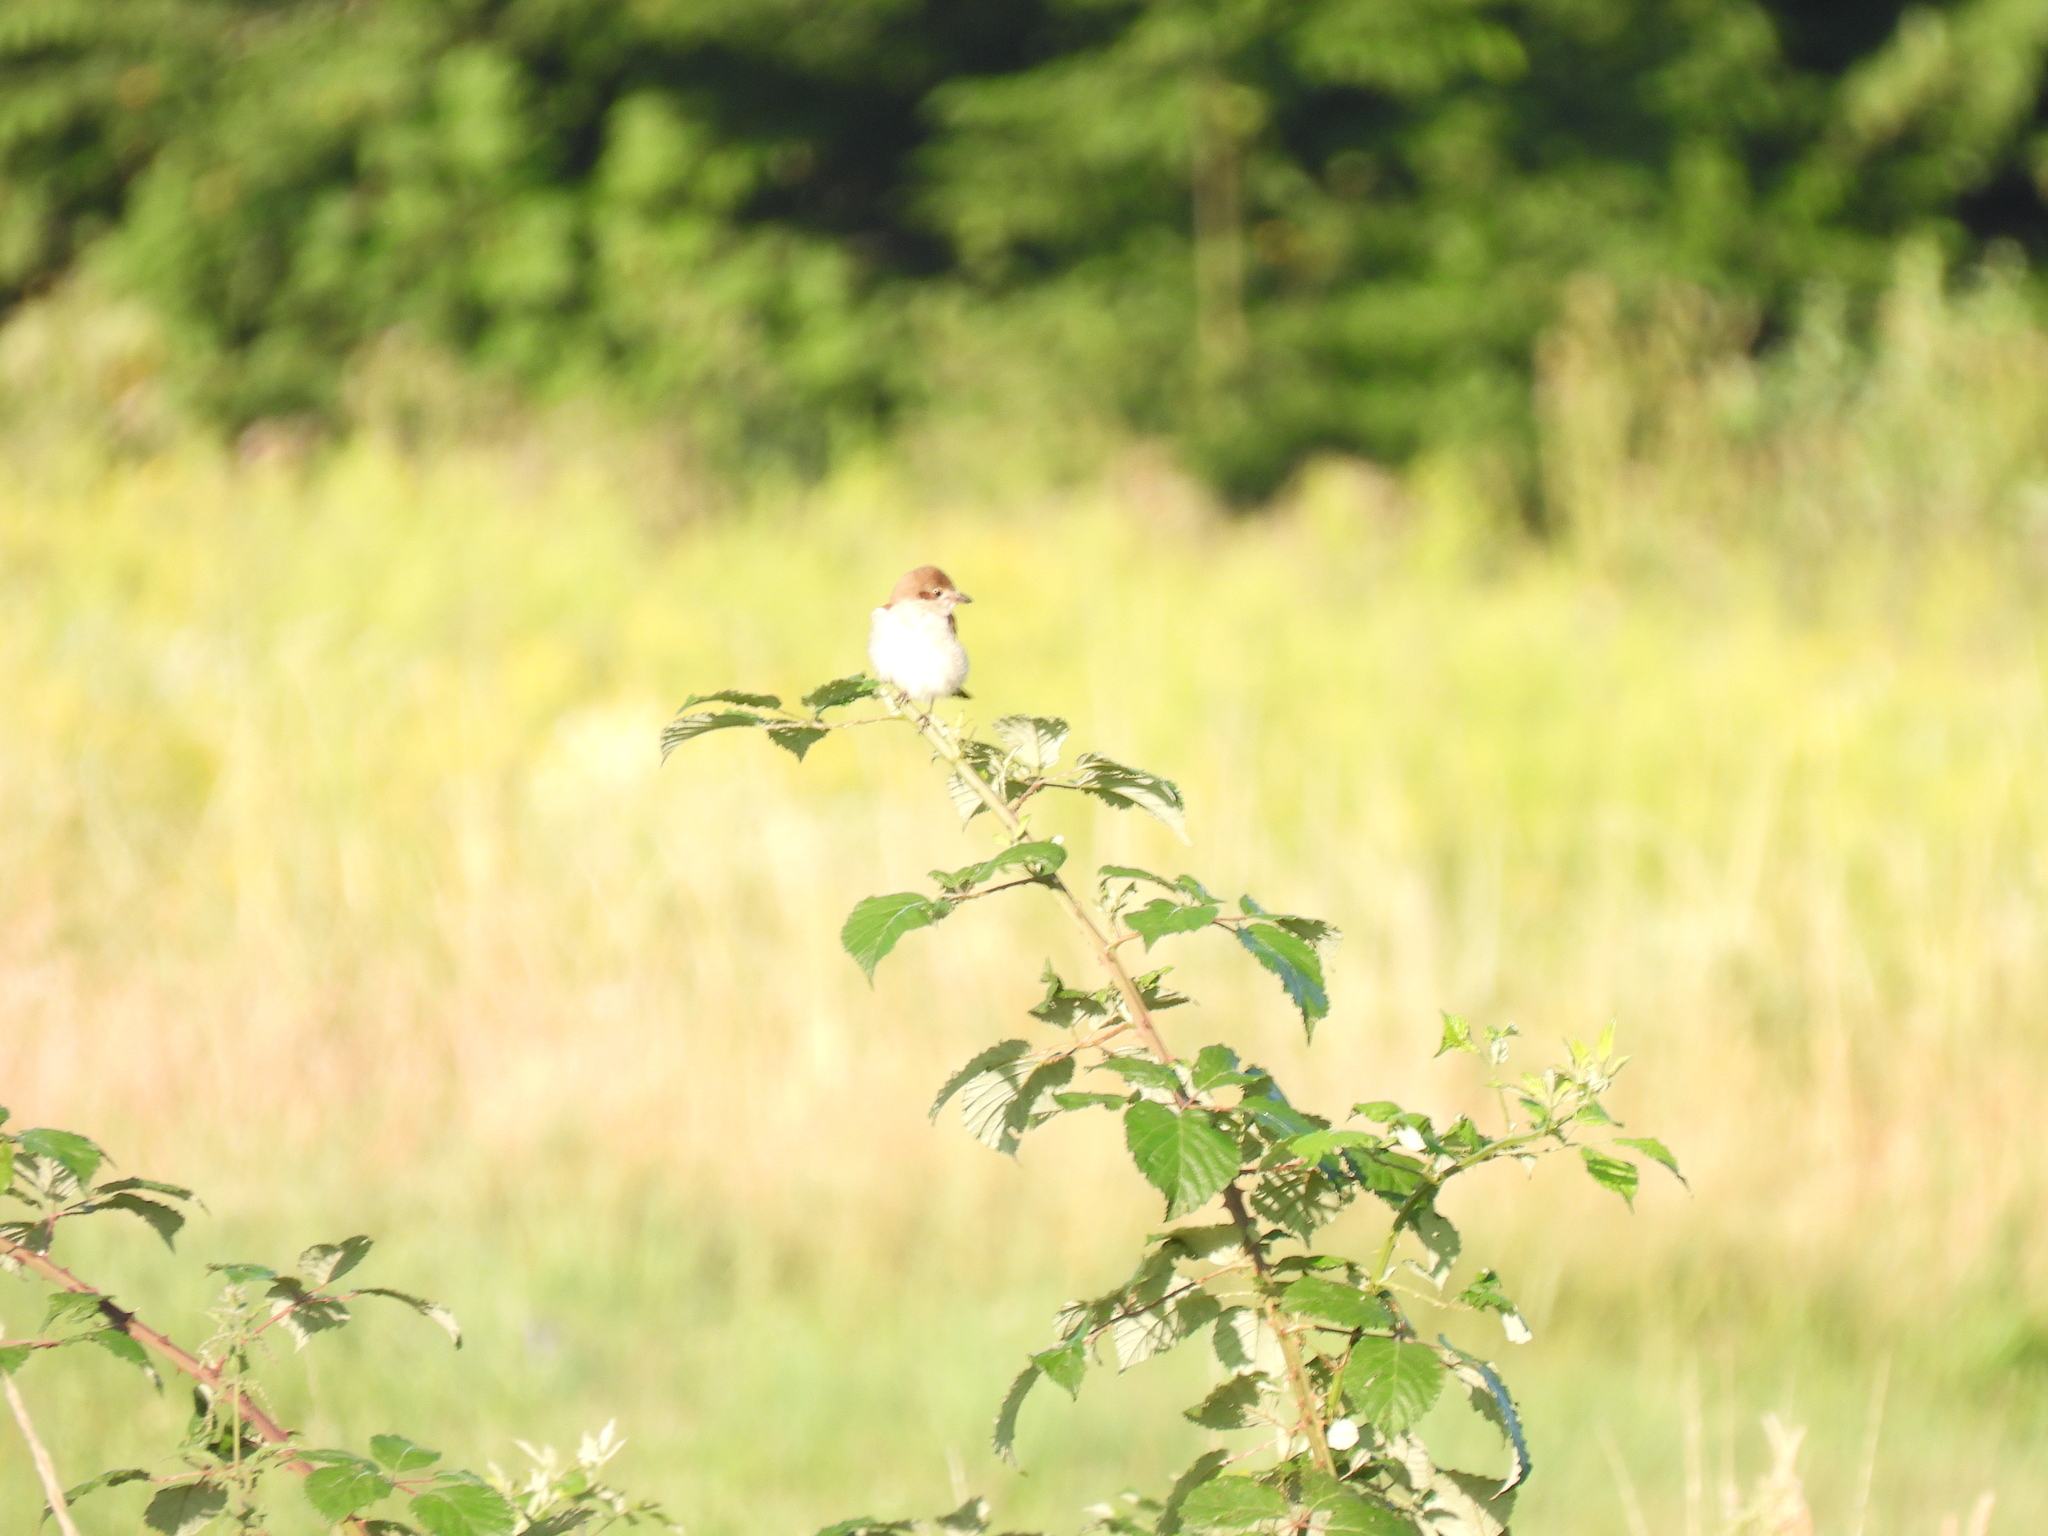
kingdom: Animalia
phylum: Chordata
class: Aves
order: Passeriformes
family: Laniidae
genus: Lanius
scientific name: Lanius collurio
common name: Red-backed shrike
